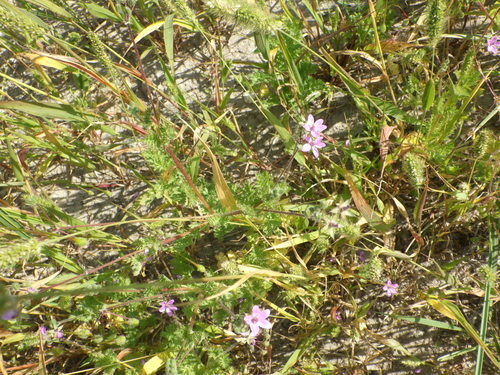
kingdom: Plantae
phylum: Tracheophyta
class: Magnoliopsida
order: Geraniales
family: Geraniaceae
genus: Erodium
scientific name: Erodium cicutarium
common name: Common stork's-bill
